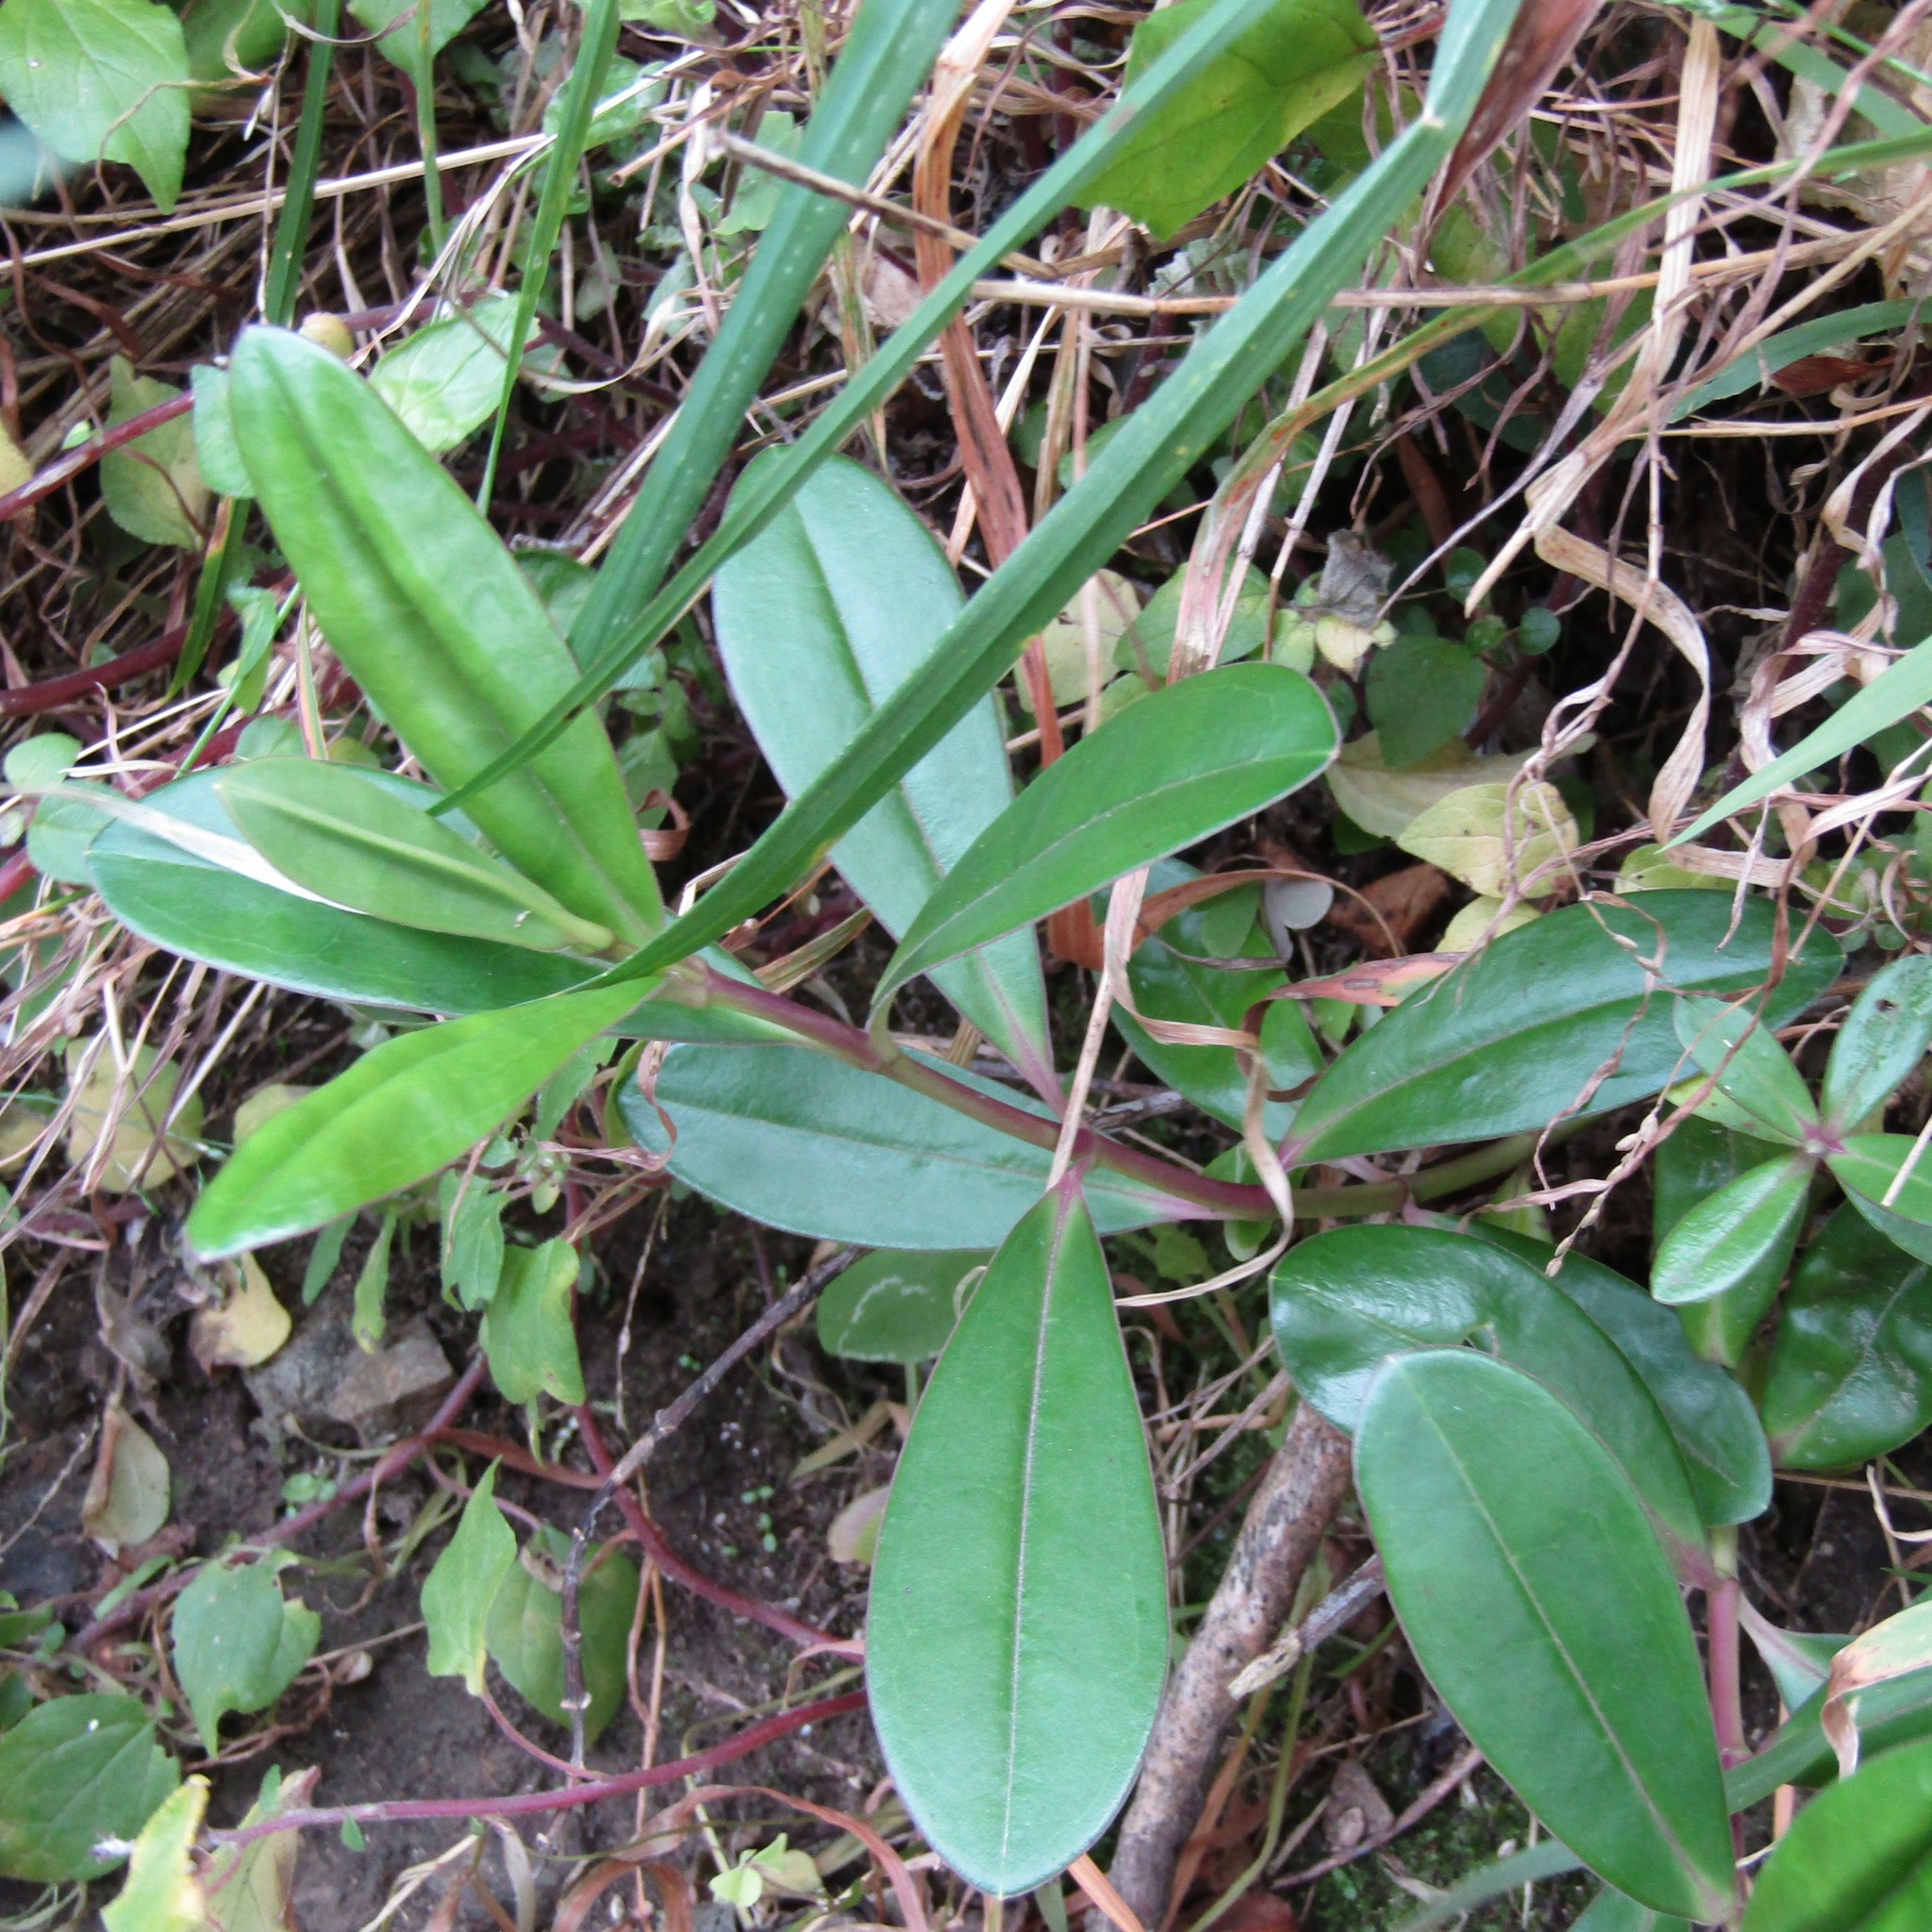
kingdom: Plantae
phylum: Tracheophyta
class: Magnoliopsida
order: Lamiales
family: Plantaginaceae
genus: Veronica
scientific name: Veronica speciosa
